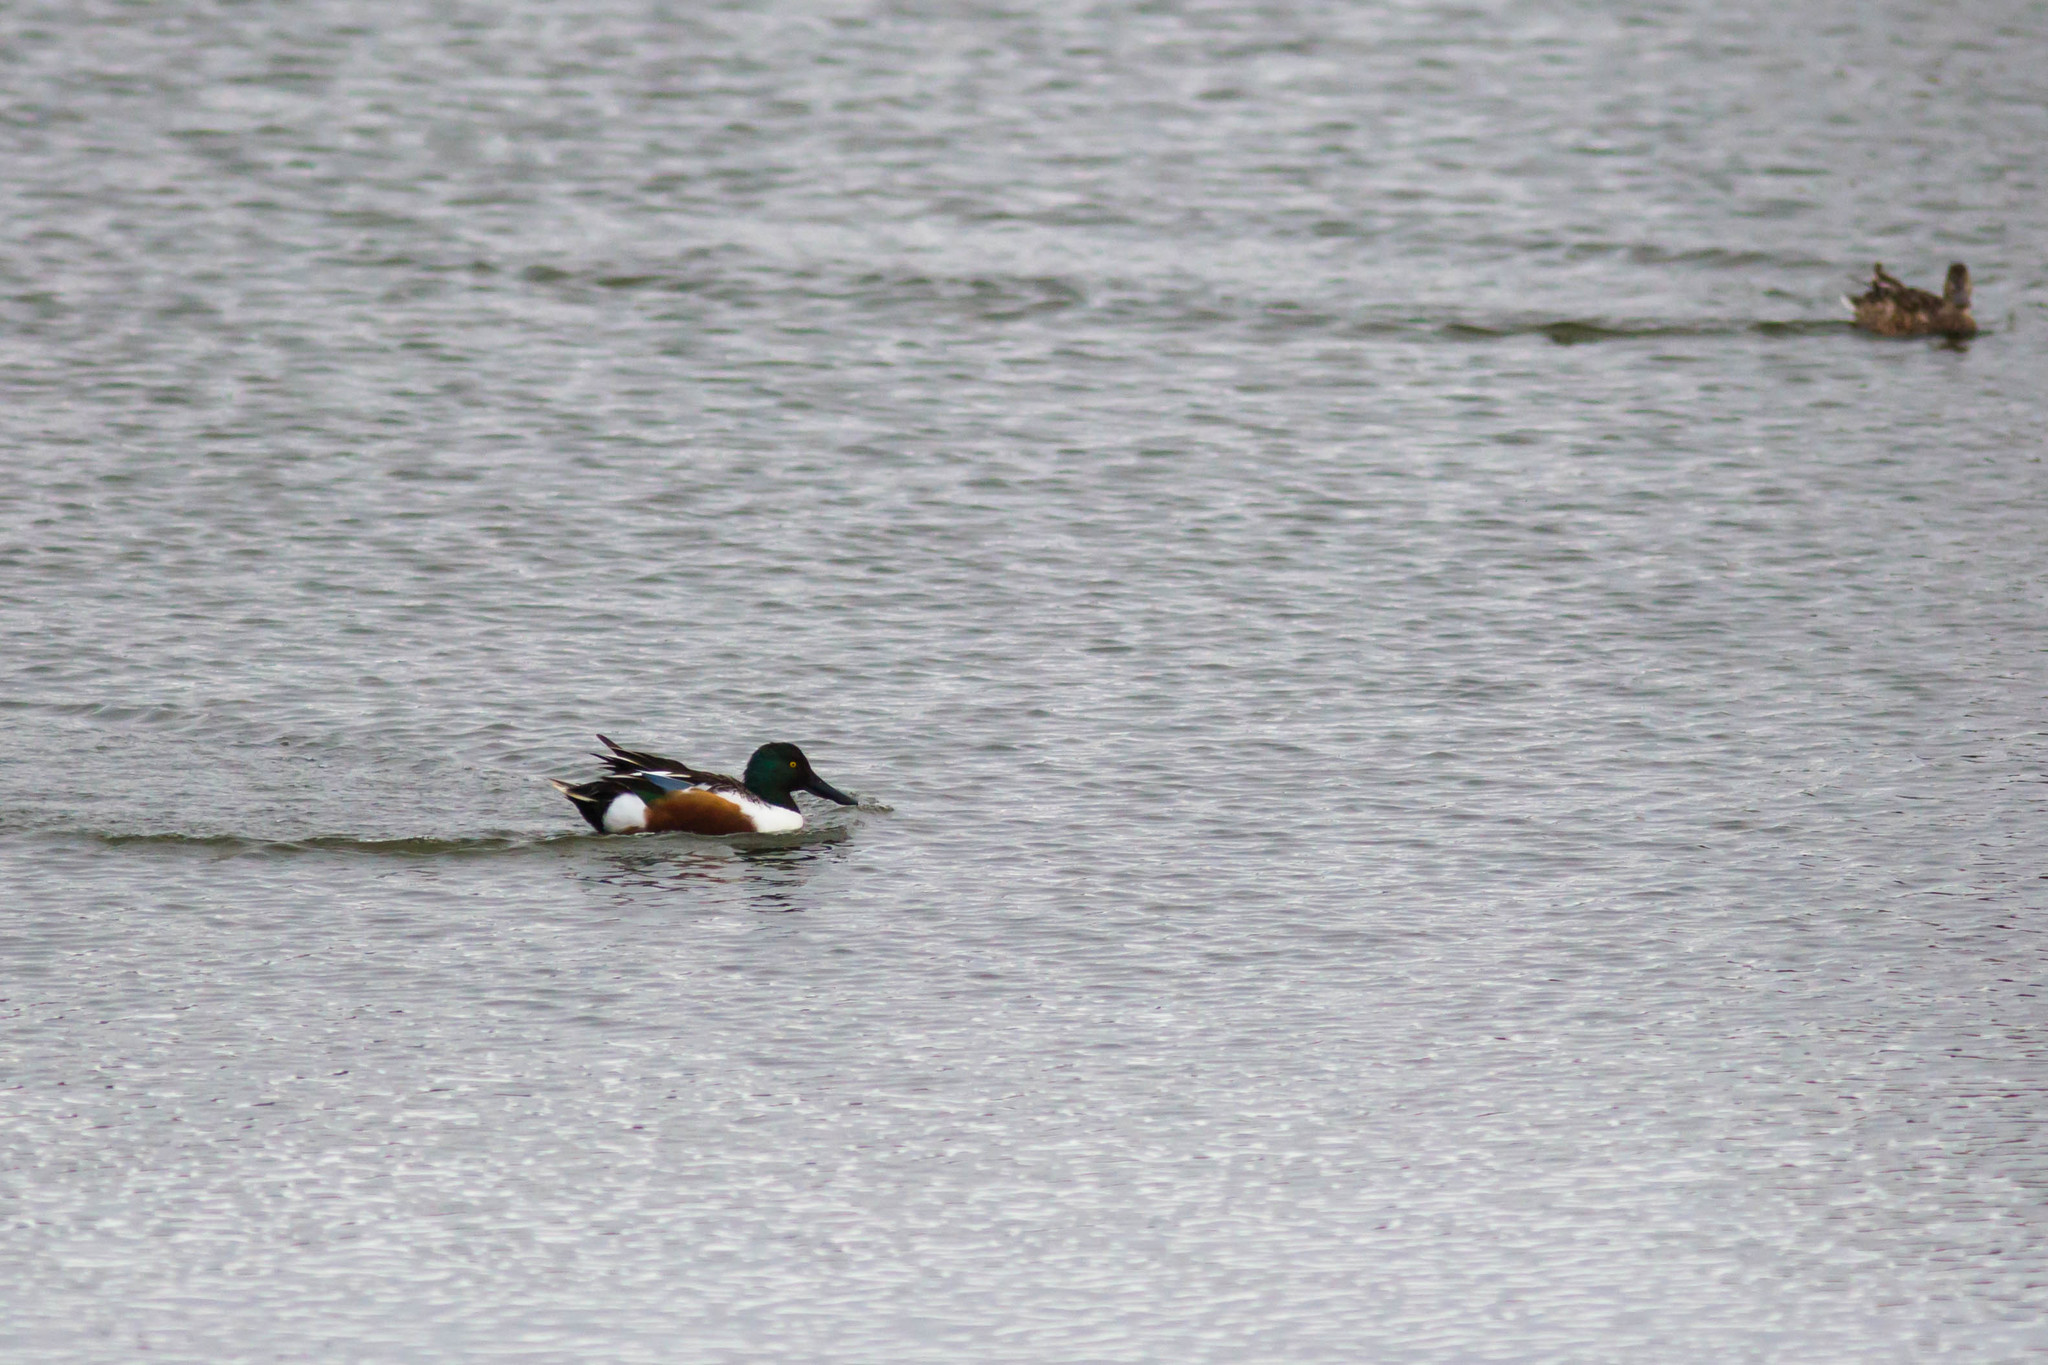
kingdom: Animalia
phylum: Chordata
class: Aves
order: Anseriformes
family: Anatidae
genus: Spatula
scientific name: Spatula clypeata
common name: Northern shoveler
